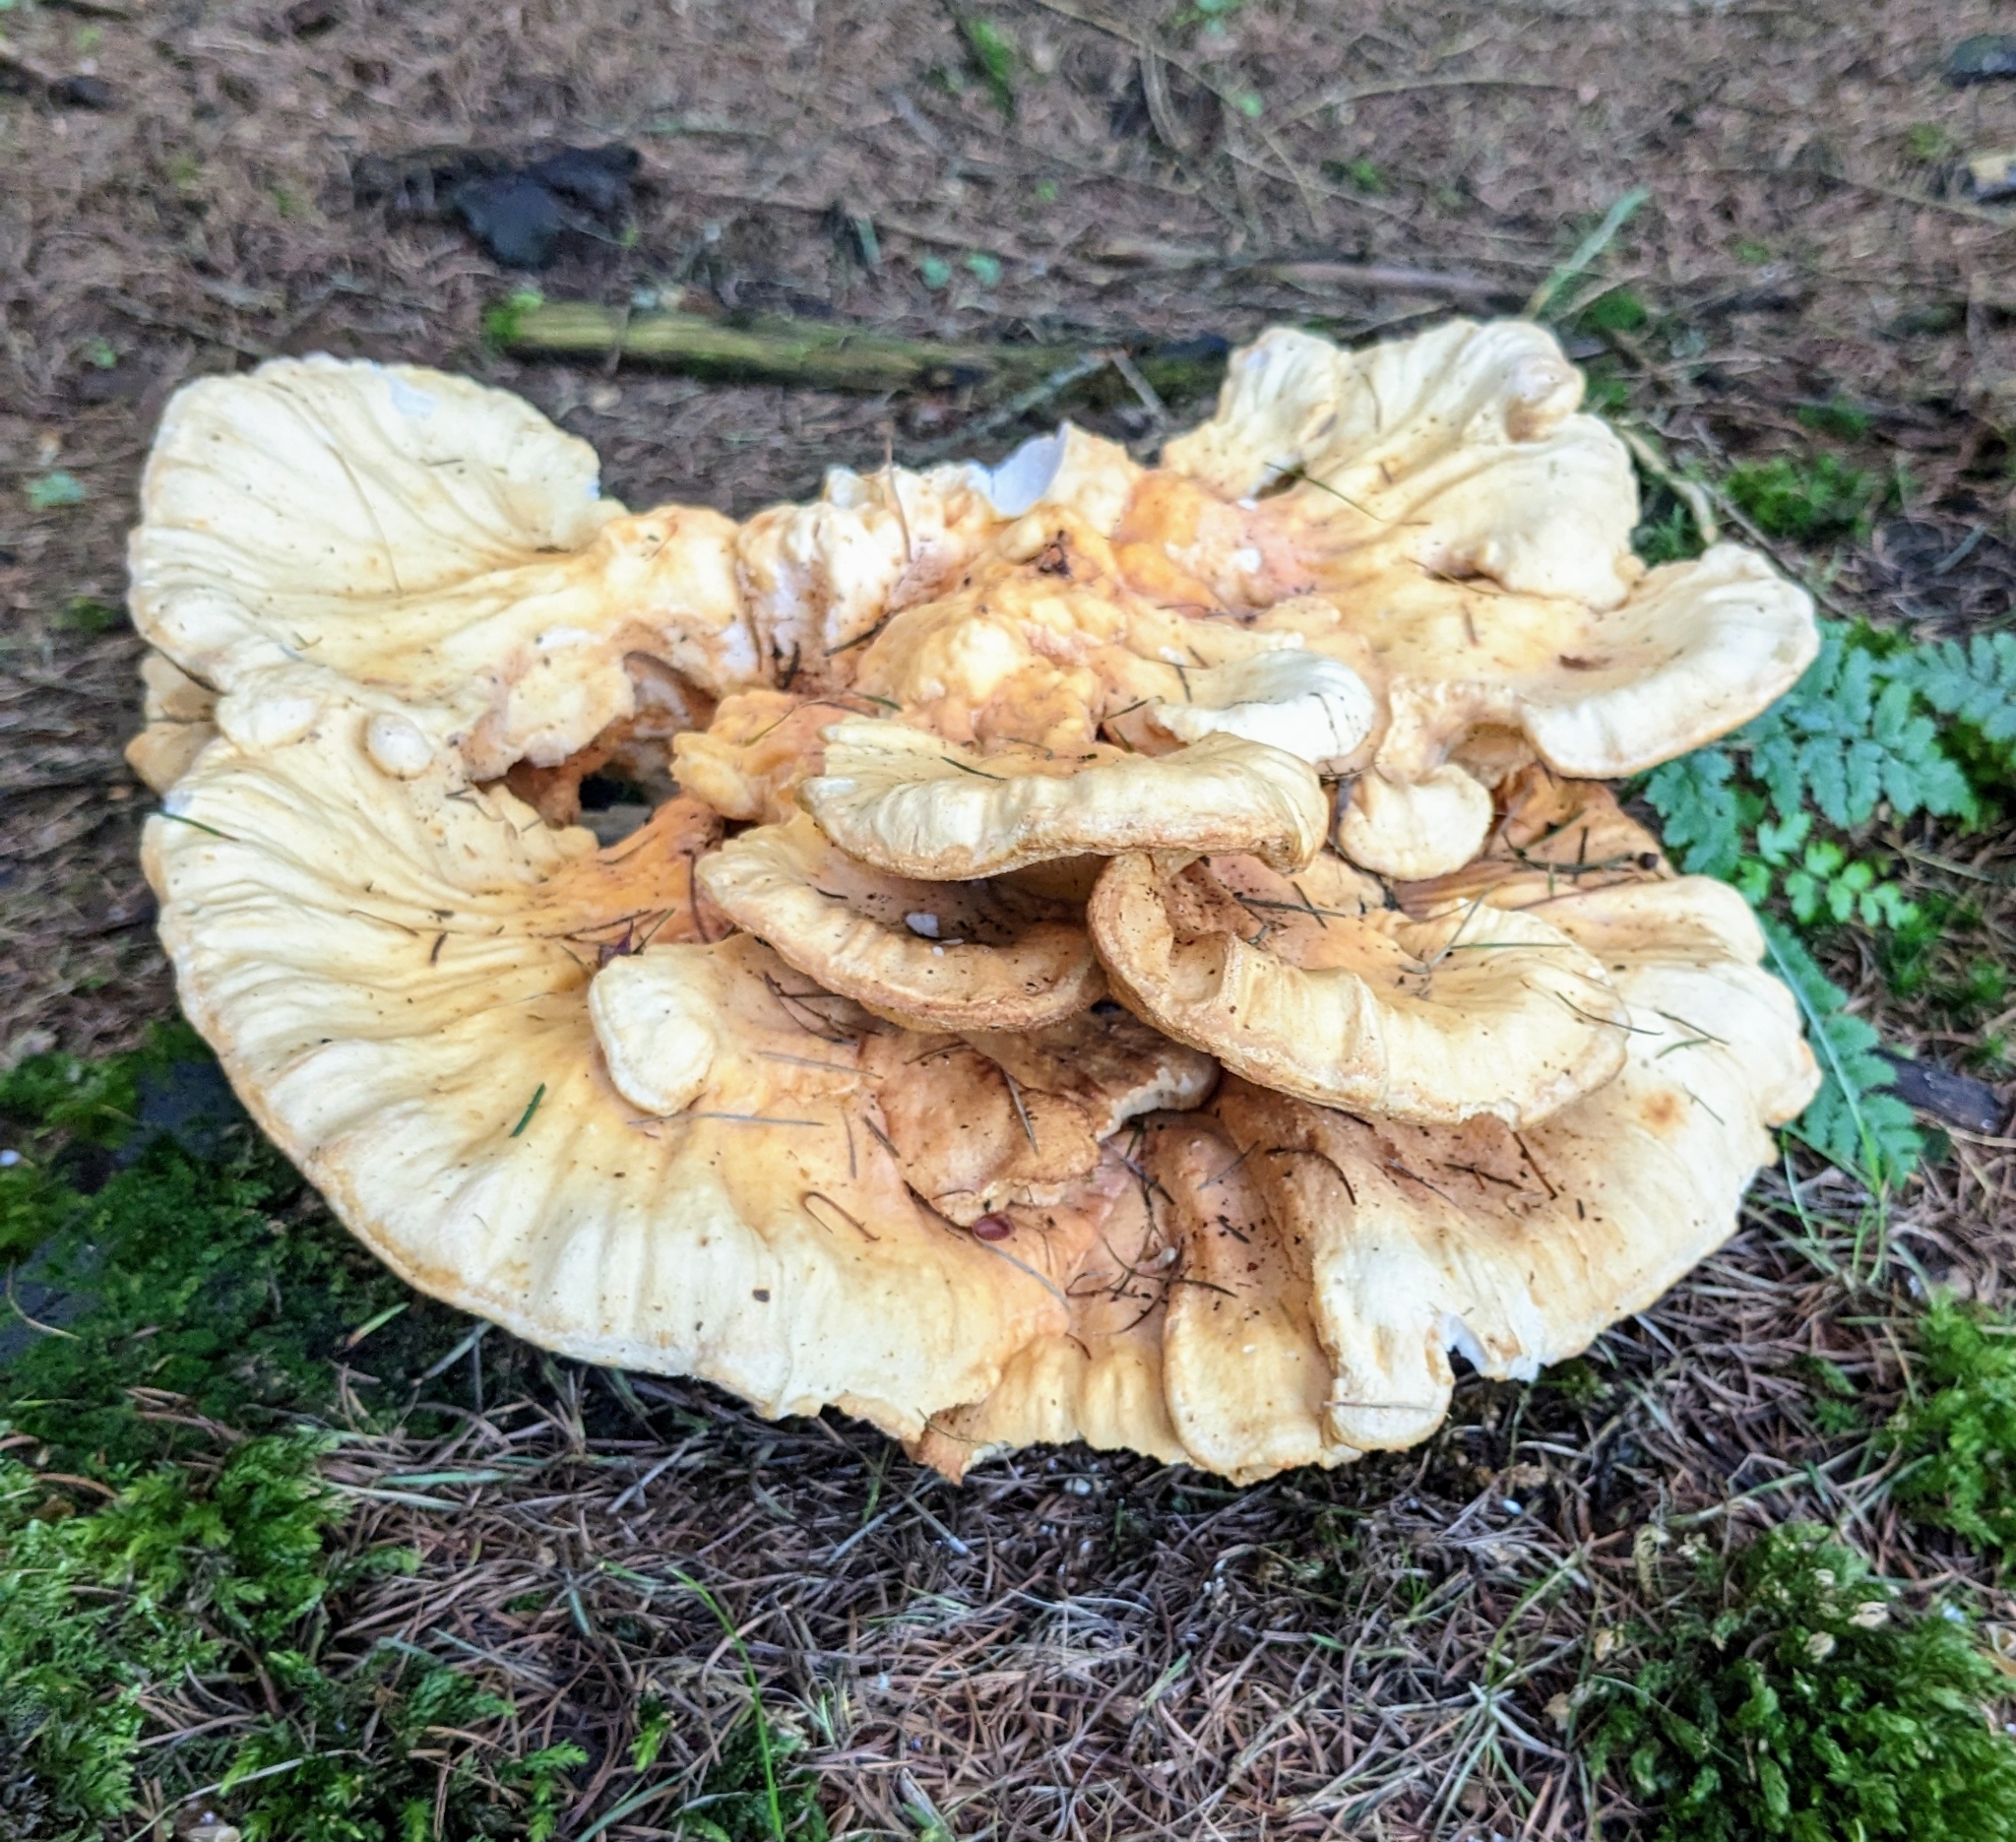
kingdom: Fungi
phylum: Basidiomycota
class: Agaricomycetes
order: Polyporales
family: Laetiporaceae
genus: Laetiporus
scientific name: Laetiporus sulphureus
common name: Chicken of the woods
